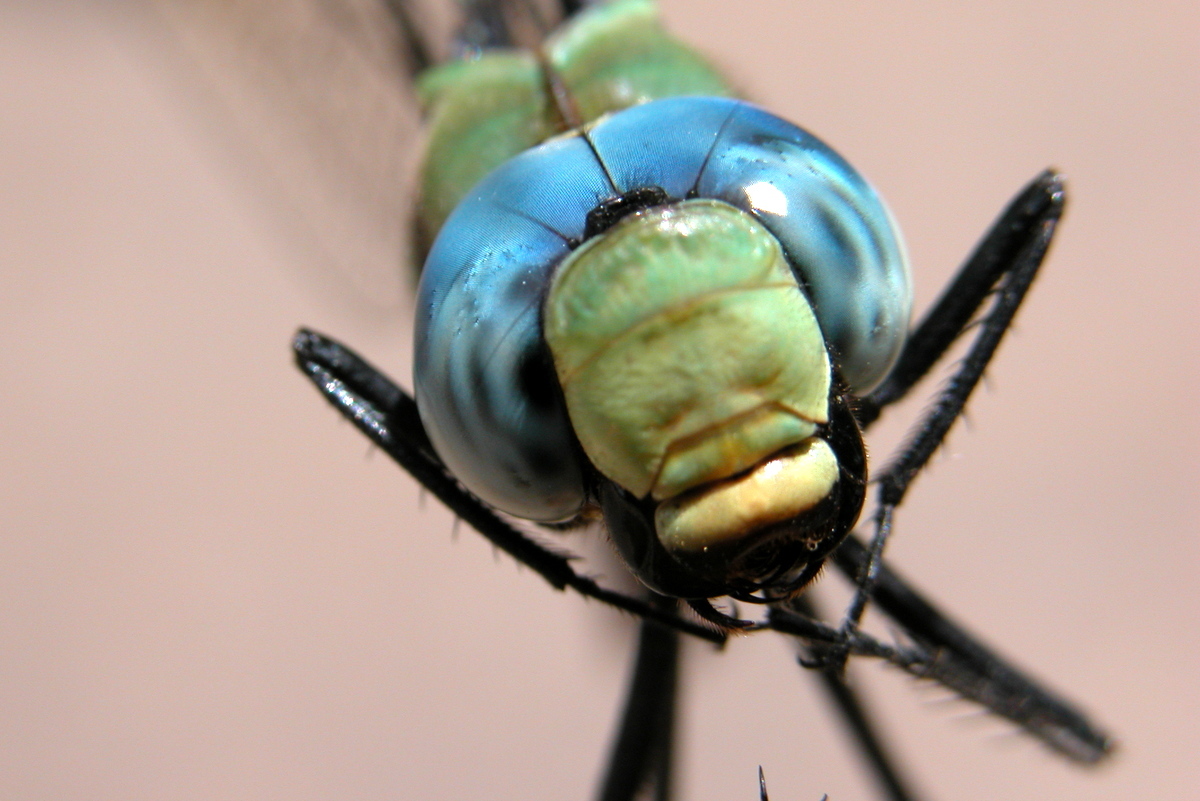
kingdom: Animalia
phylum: Arthropoda
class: Insecta
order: Odonata
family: Aeshnidae
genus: Anax
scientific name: Anax immaculifrons
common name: Magnificent emperor
